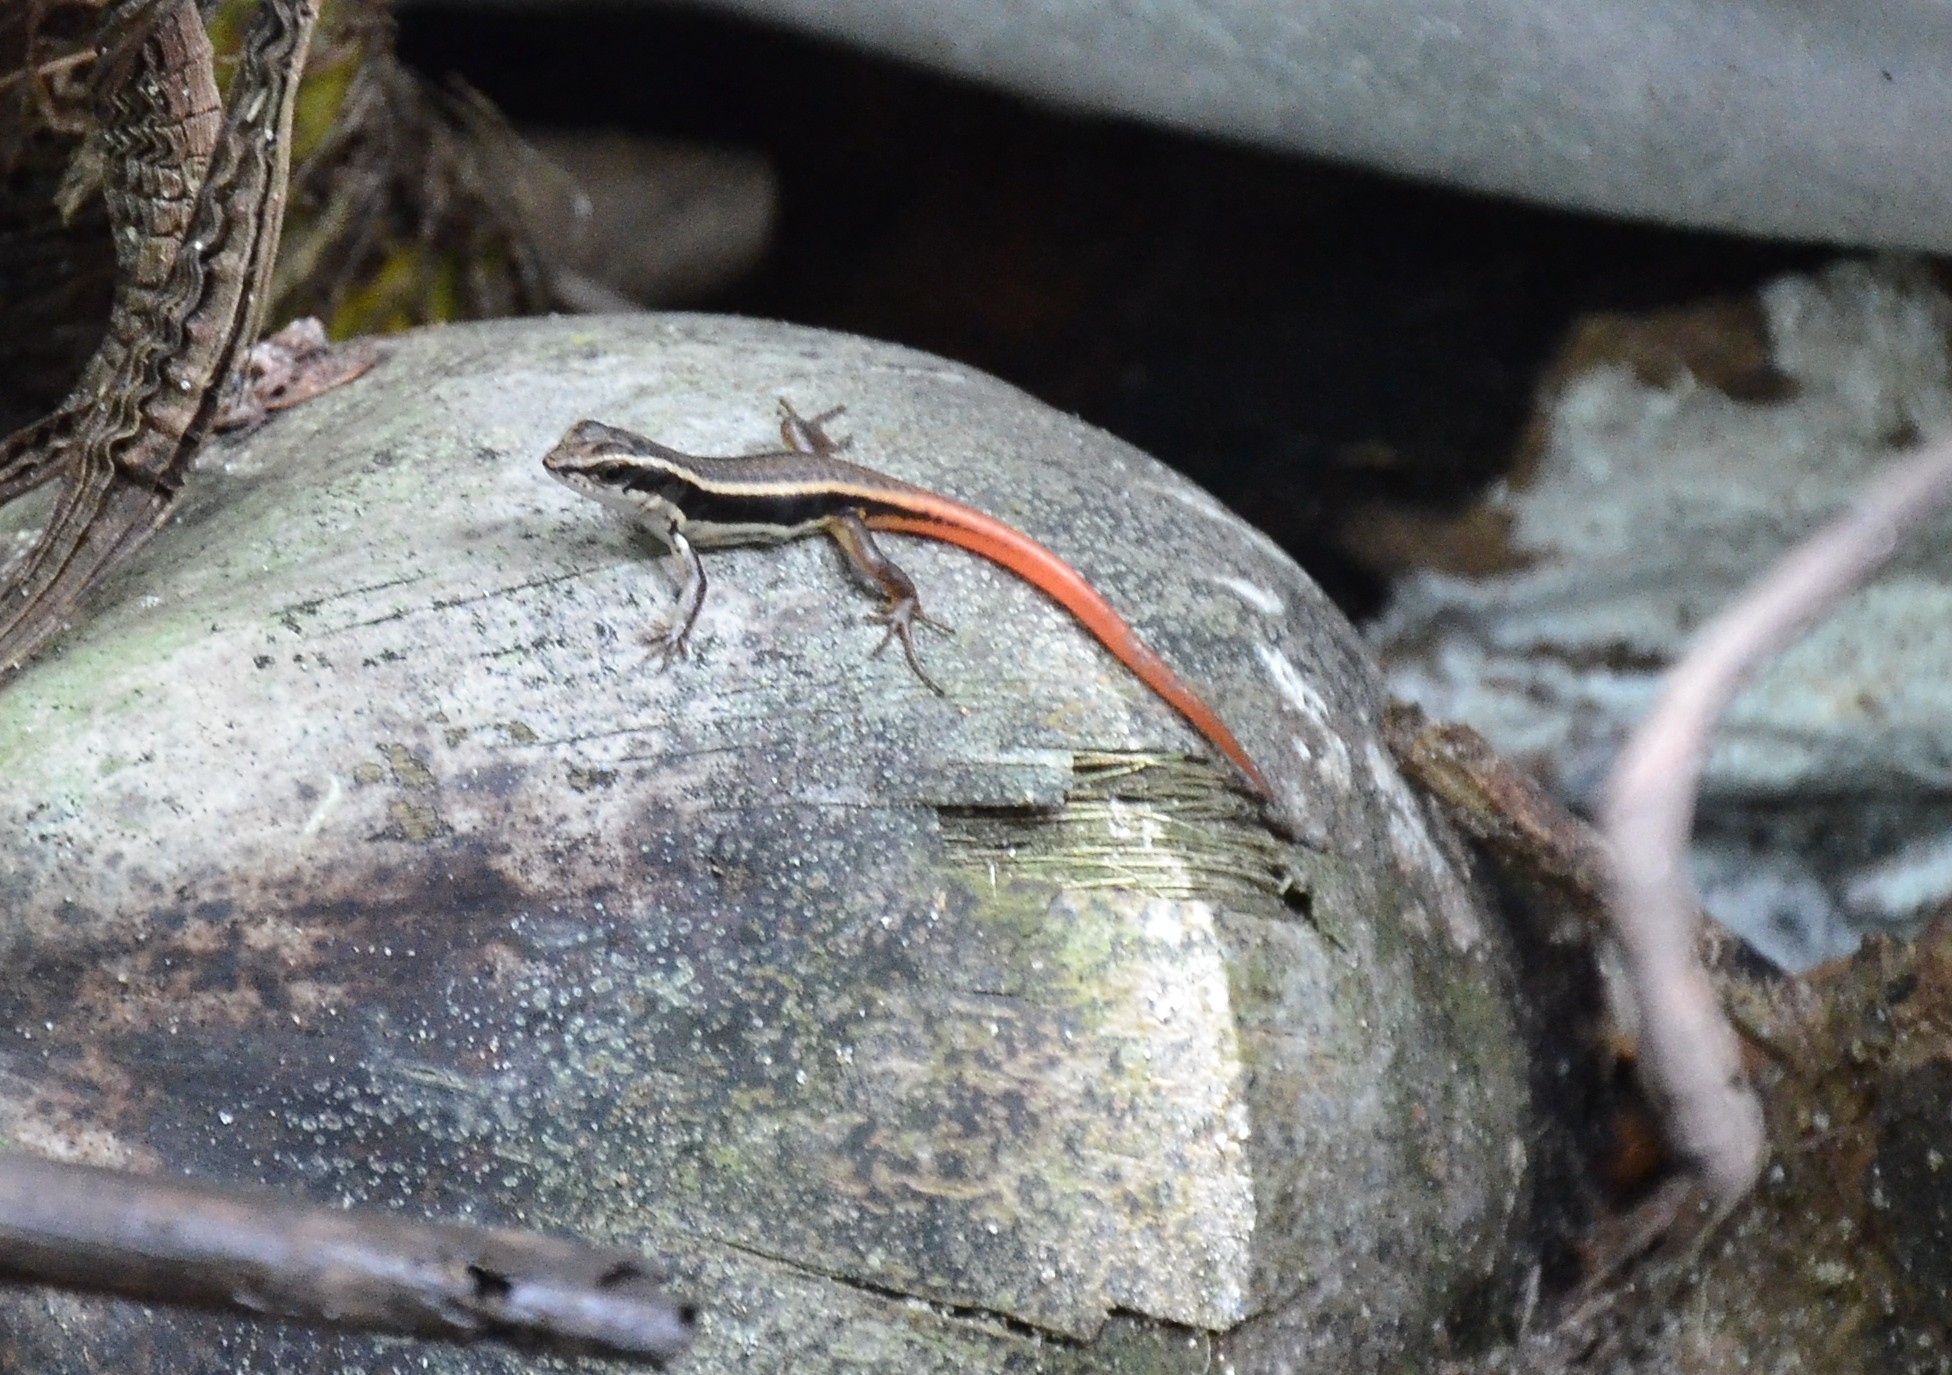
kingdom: Animalia
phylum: Chordata
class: Squamata
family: Scincidae
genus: Sphenomorphus
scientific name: Sphenomorphus dussumieri
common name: Dussumier's forest skink
